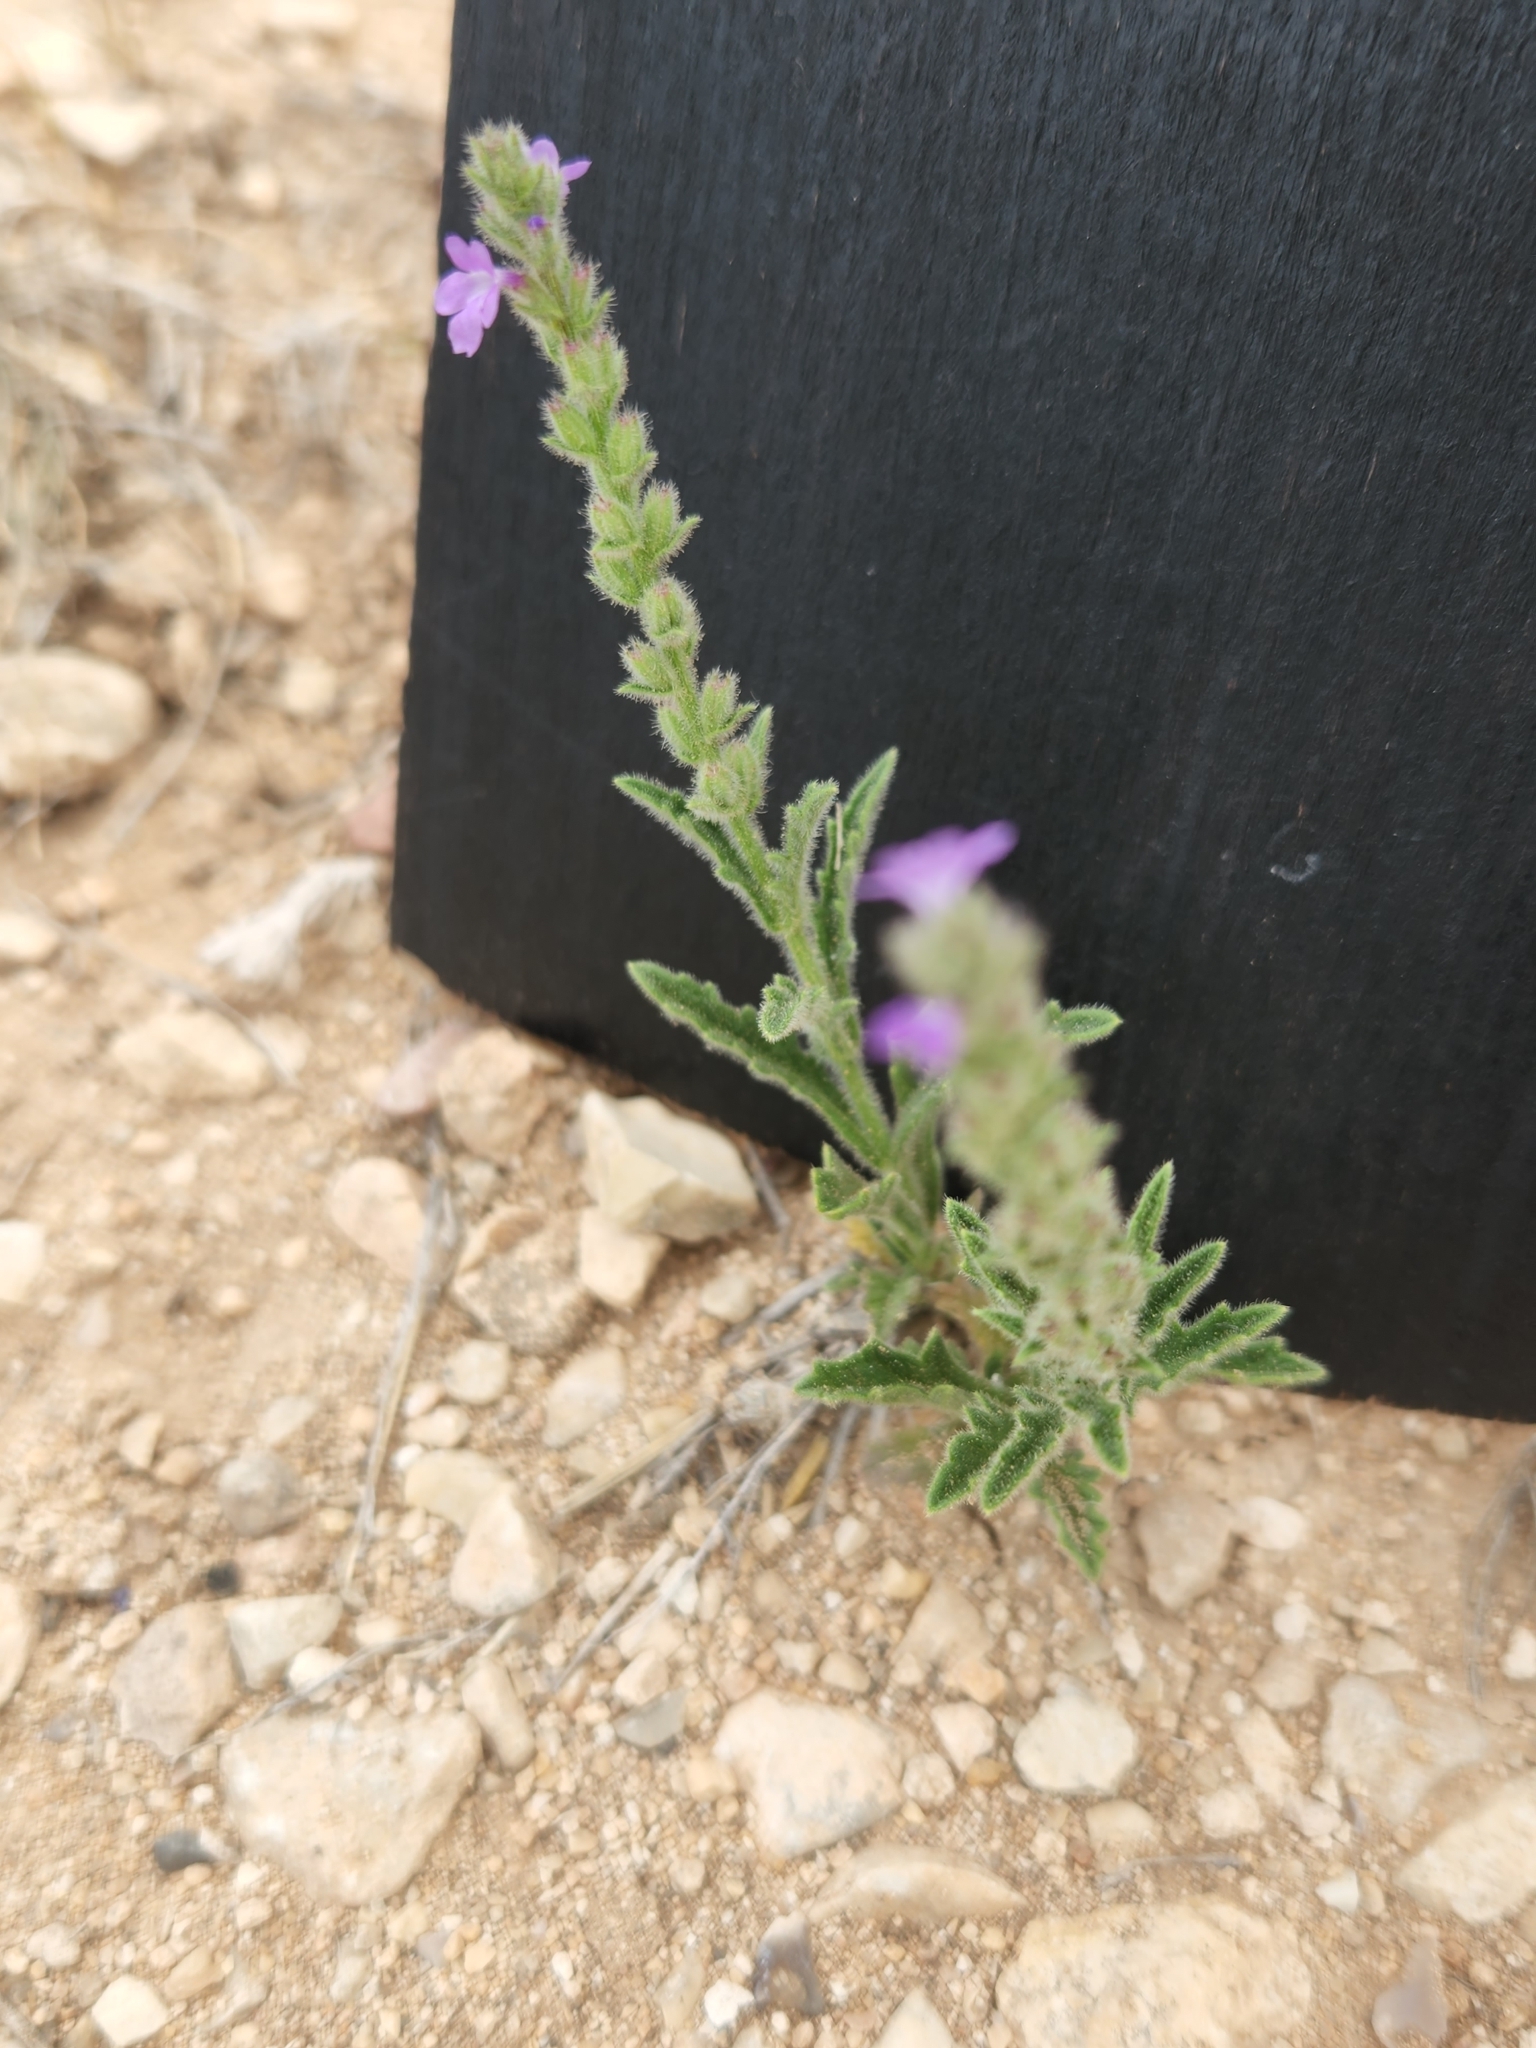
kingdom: Plantae
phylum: Tracheophyta
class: Magnoliopsida
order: Lamiales
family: Verbenaceae
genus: Verbena
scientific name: Verbena canescens
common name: Gray vervain
